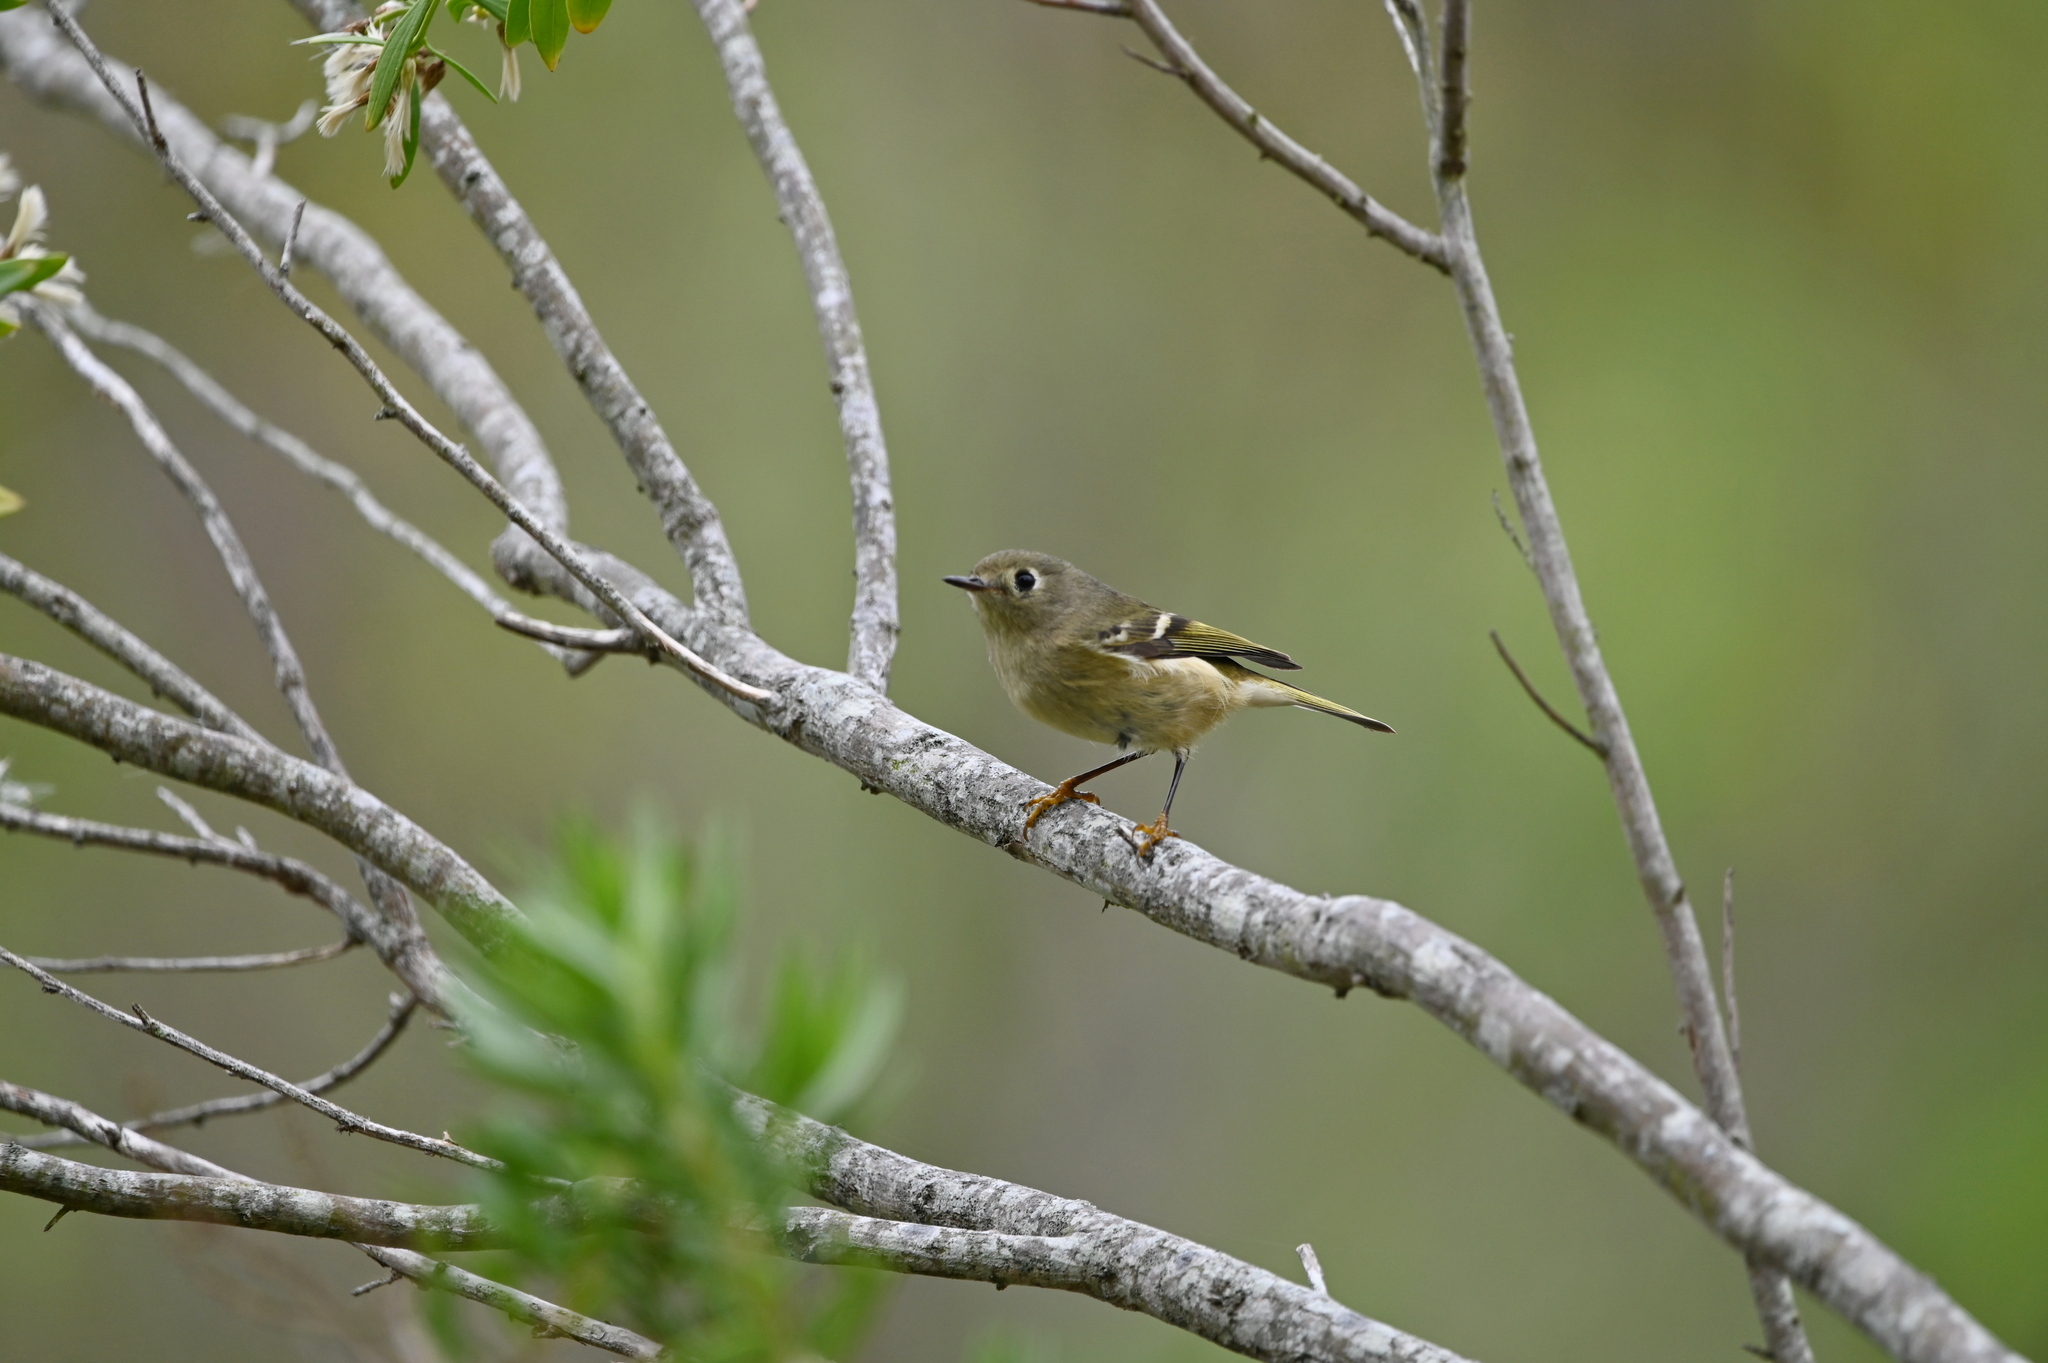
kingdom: Animalia
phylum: Chordata
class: Aves
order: Passeriformes
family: Regulidae
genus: Regulus
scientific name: Regulus calendula
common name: Ruby-crowned kinglet
